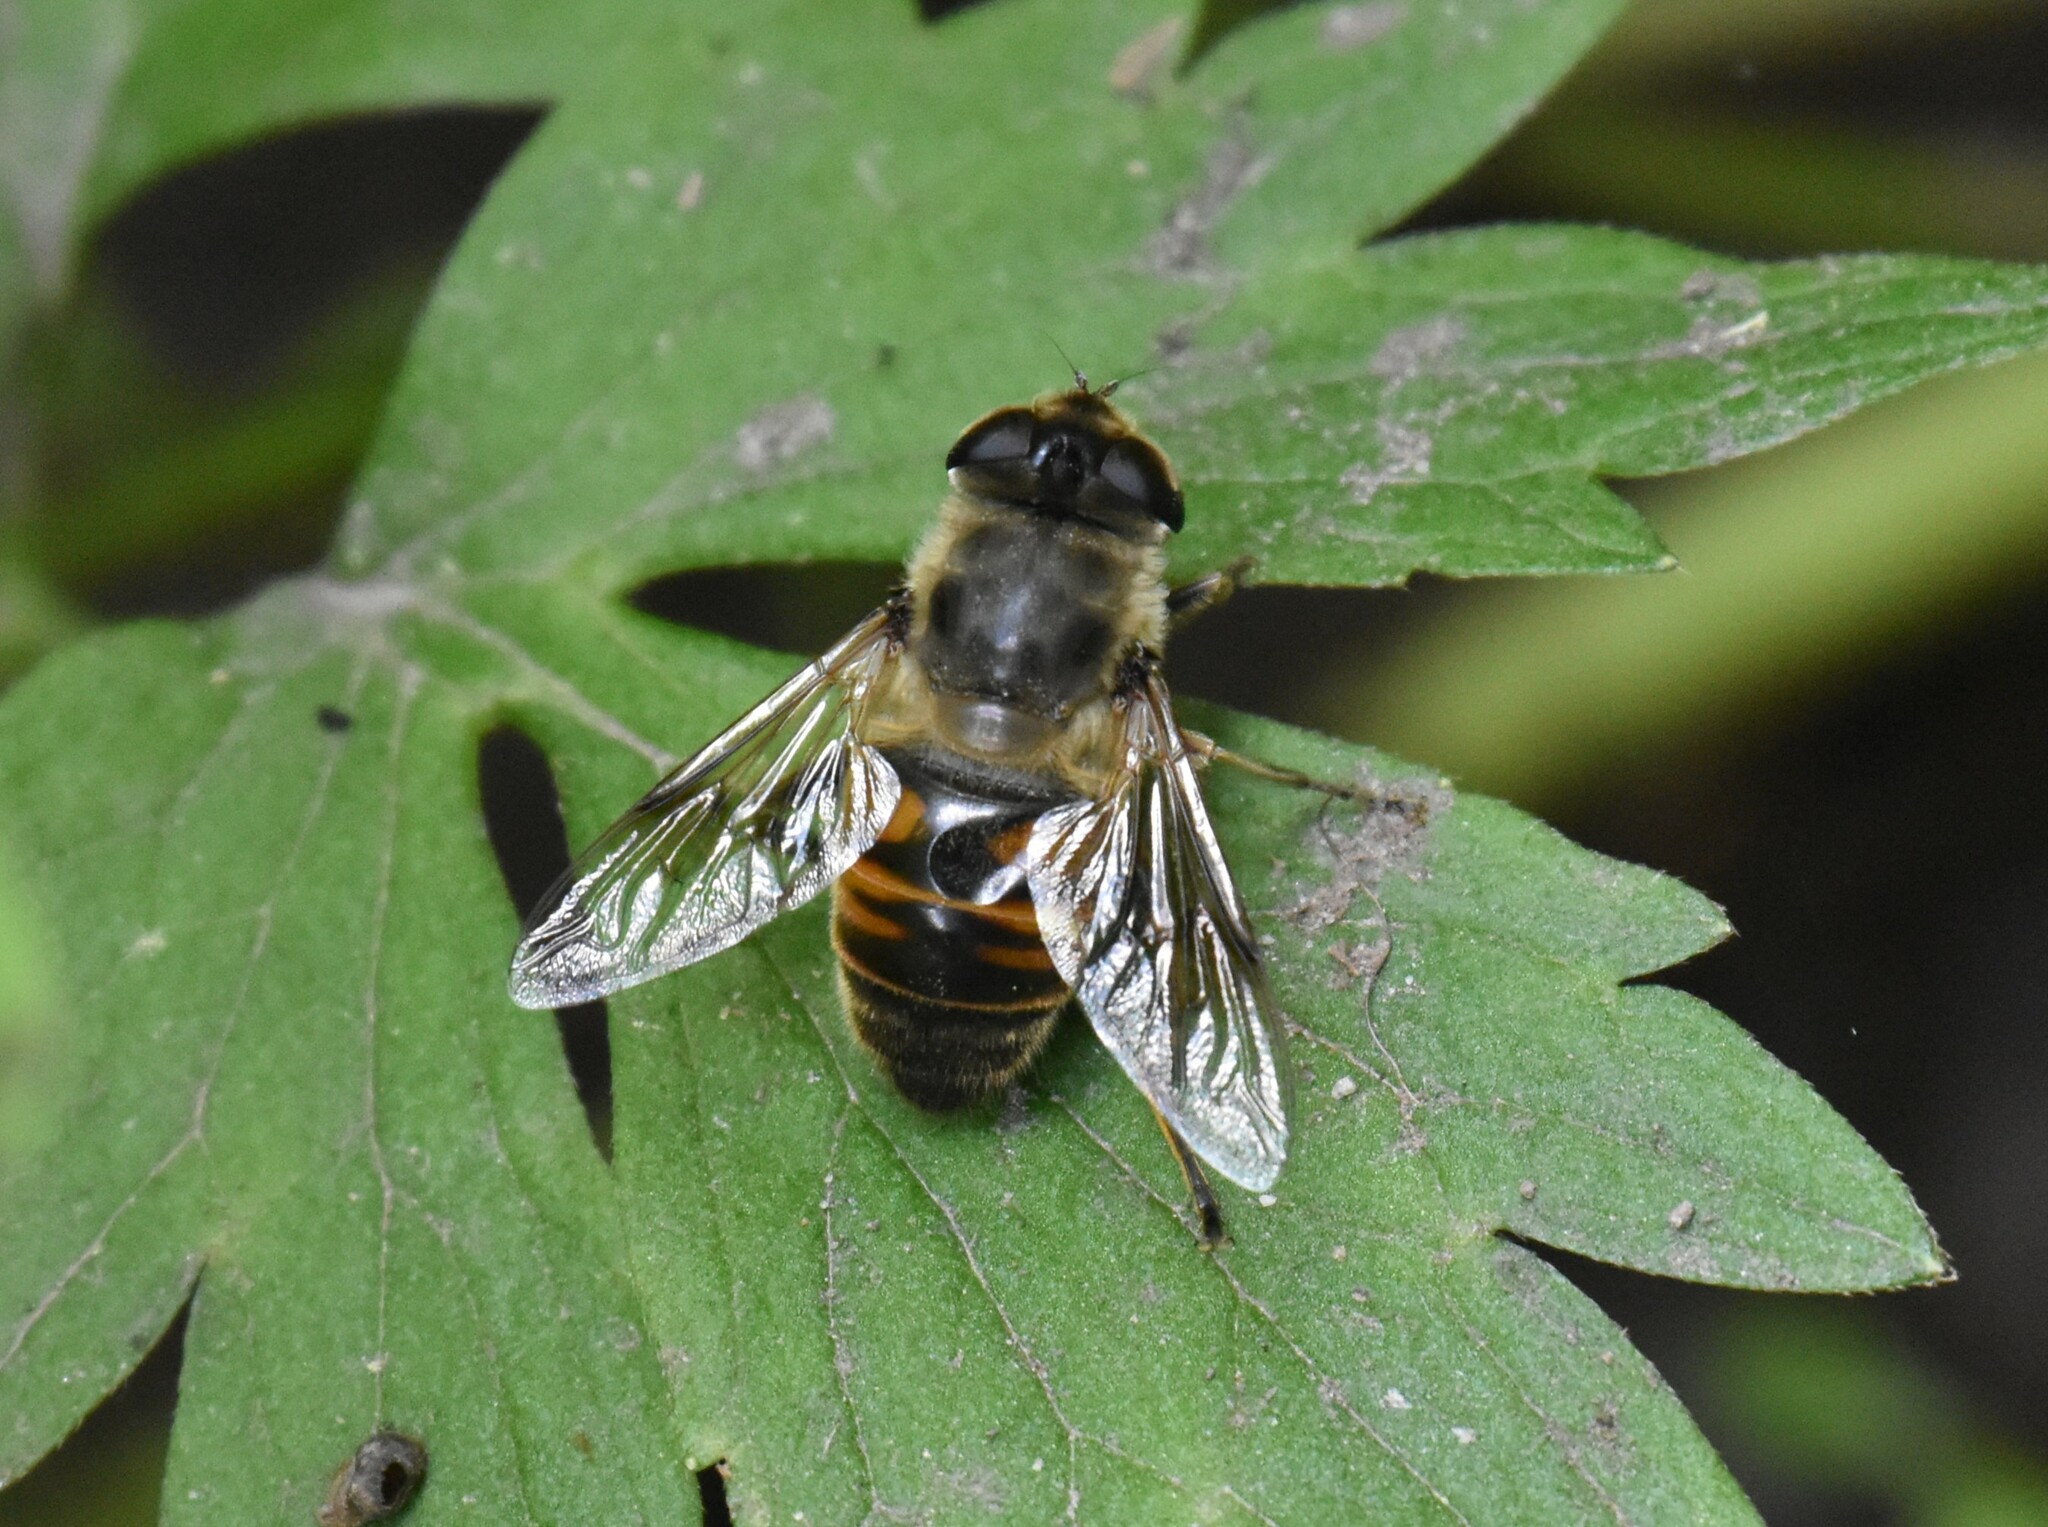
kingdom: Animalia
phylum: Arthropoda
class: Insecta
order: Diptera
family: Syrphidae
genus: Eristalis
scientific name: Eristalis tenax
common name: Drone fly
